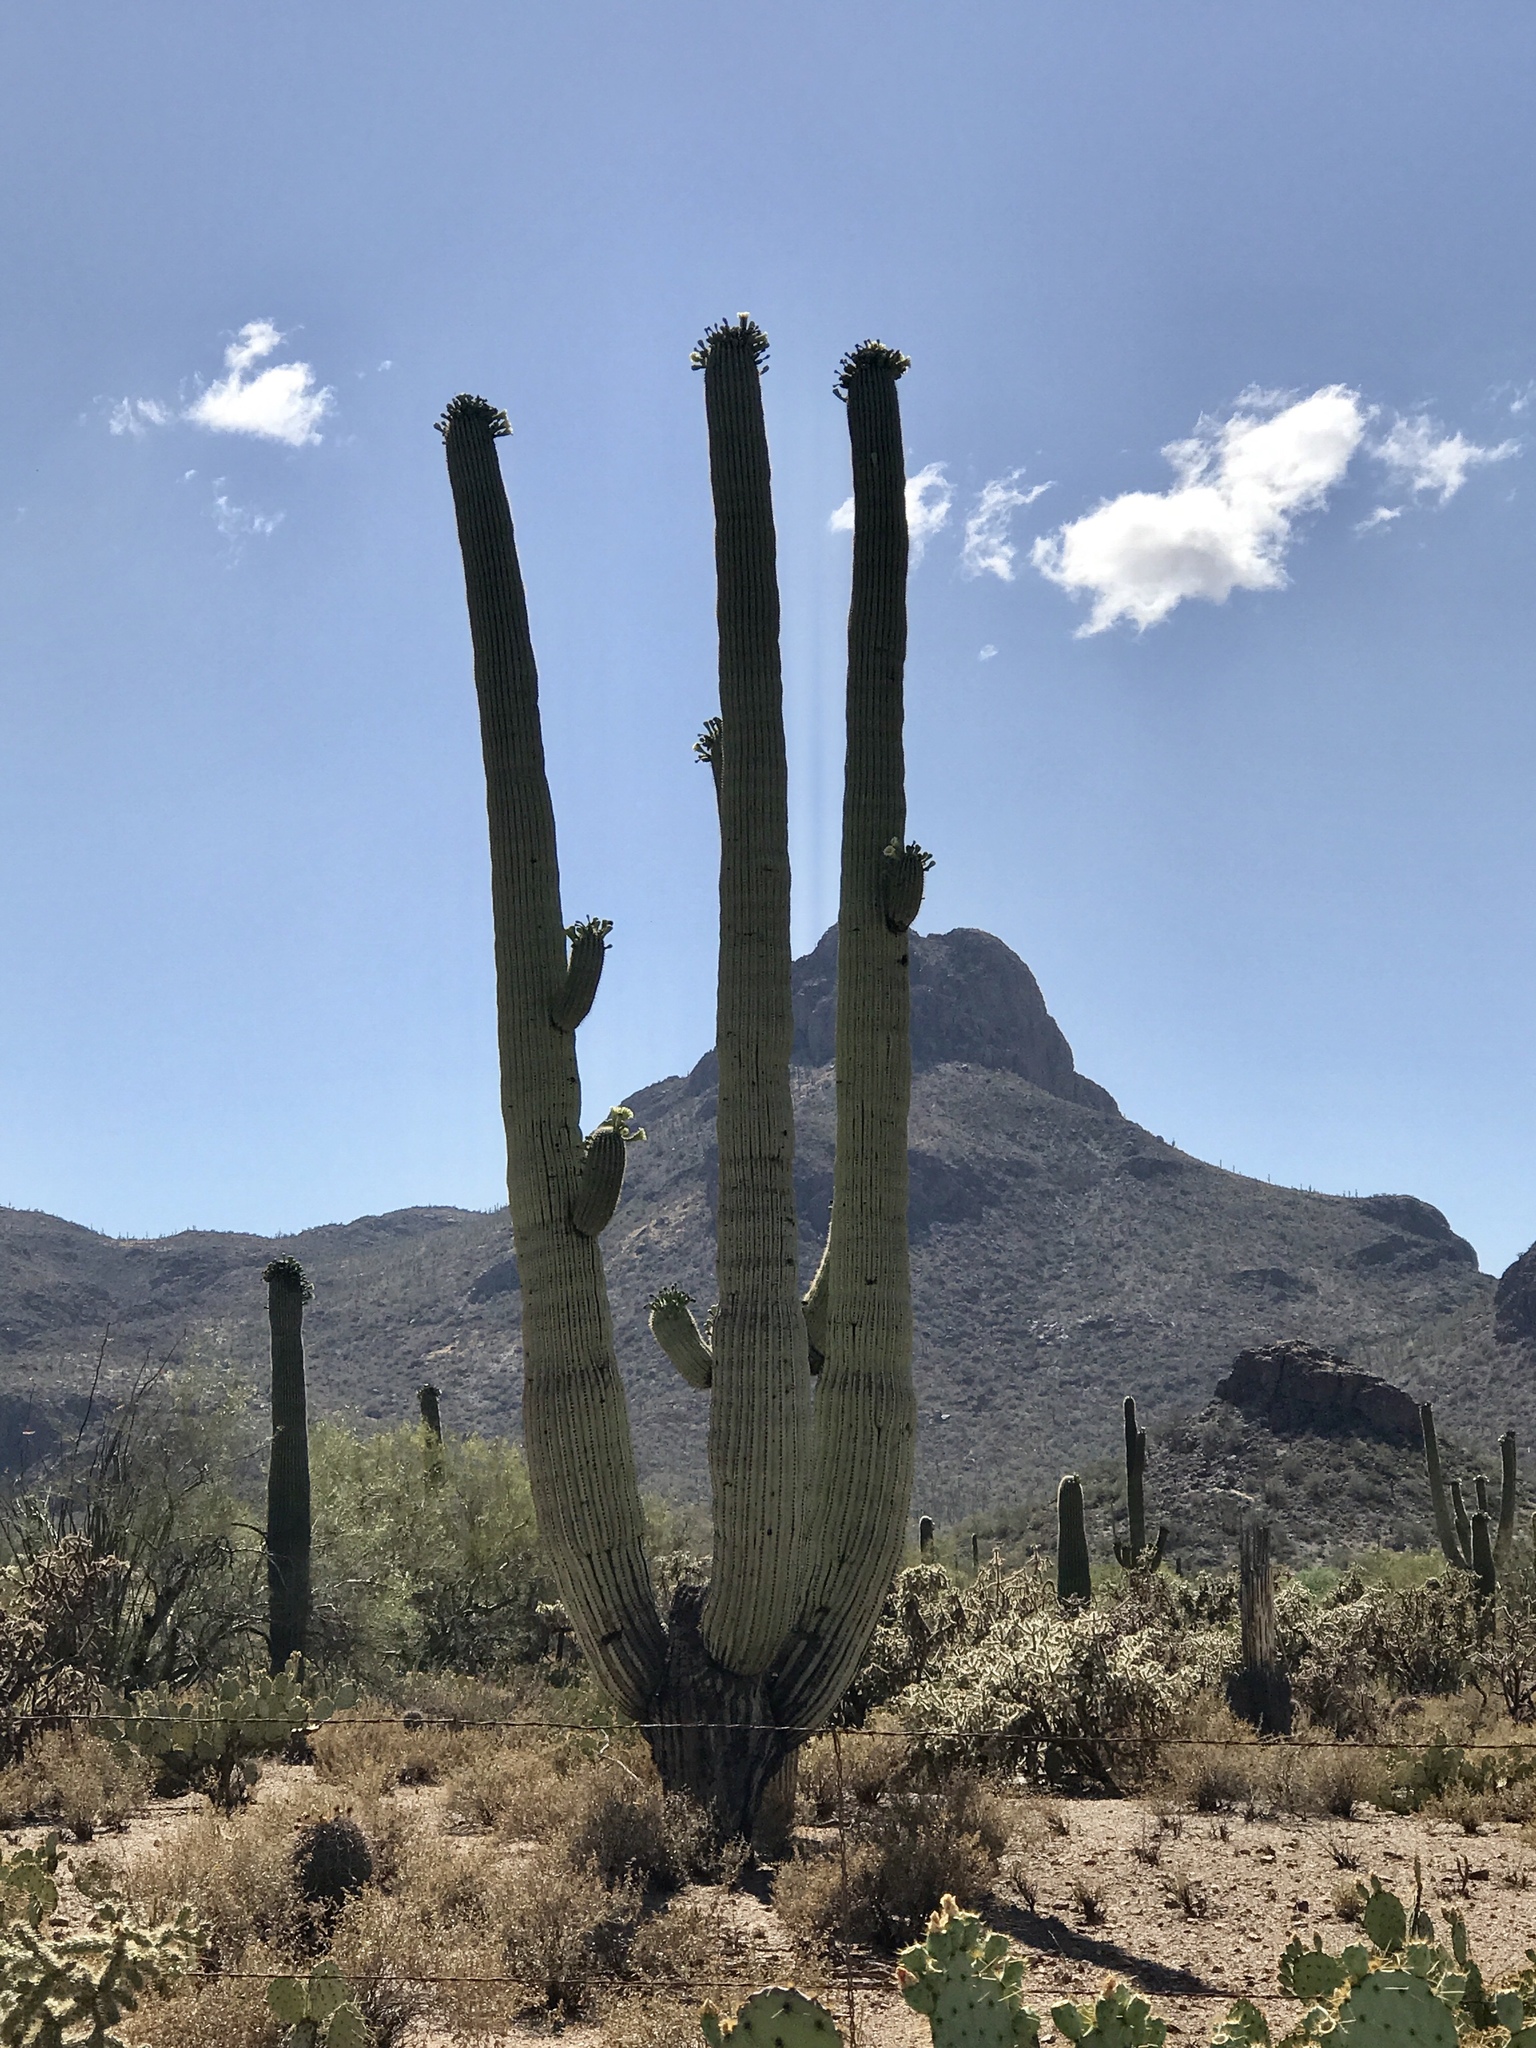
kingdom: Plantae
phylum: Tracheophyta
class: Magnoliopsida
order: Caryophyllales
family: Cactaceae
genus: Carnegiea
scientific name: Carnegiea gigantea
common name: Saguaro
